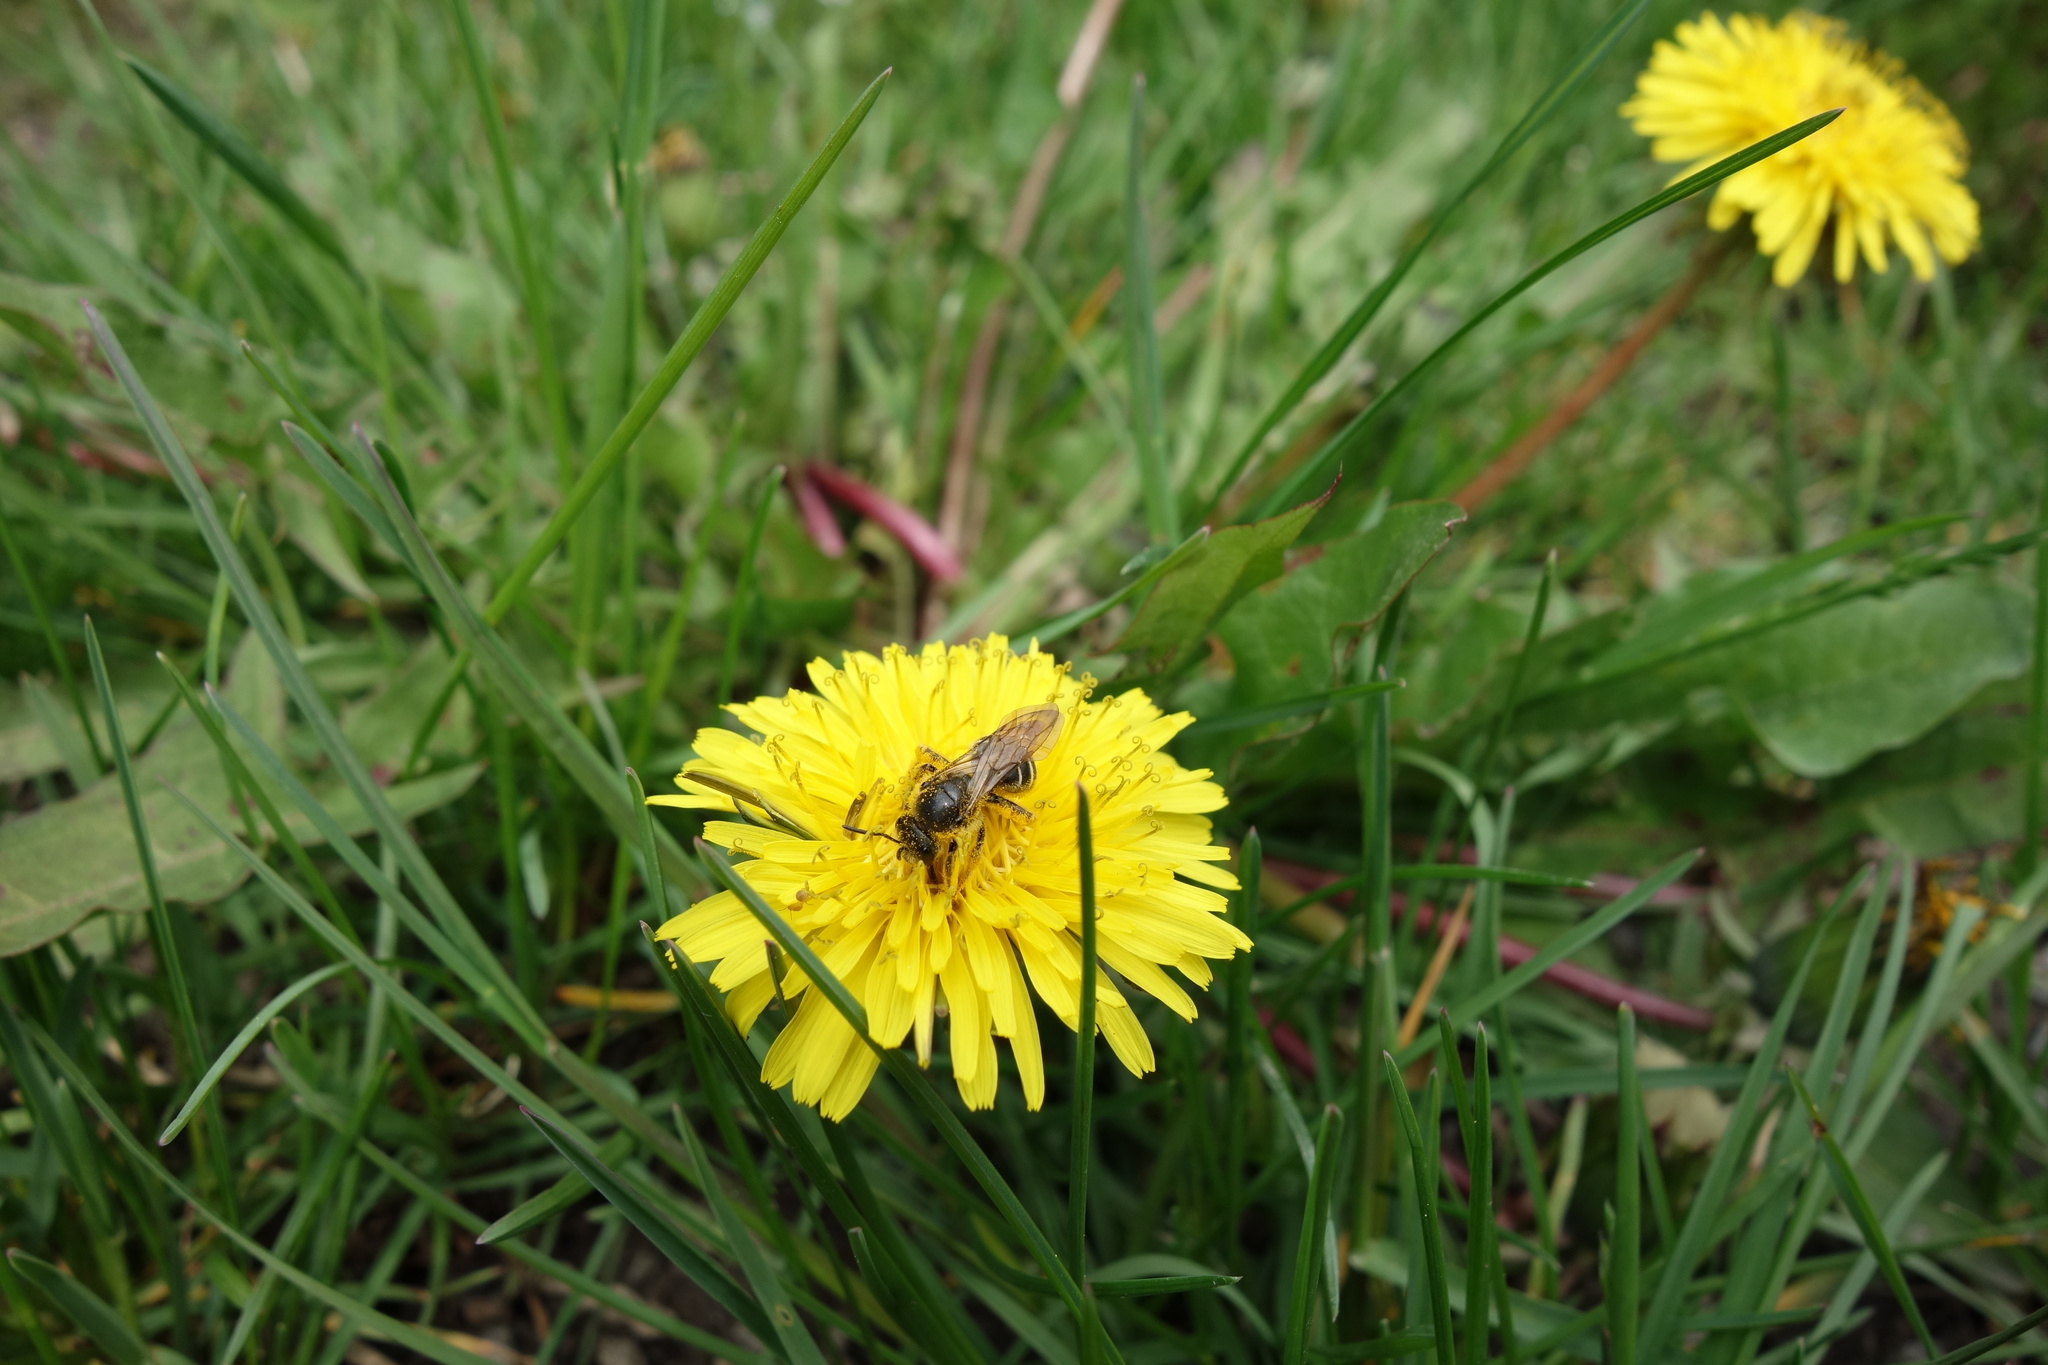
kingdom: Animalia
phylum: Arthropoda
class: Insecta
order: Hymenoptera
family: Halictidae
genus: Halictus
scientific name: Halictus rubicundus
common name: Orange-legged furrow bee
